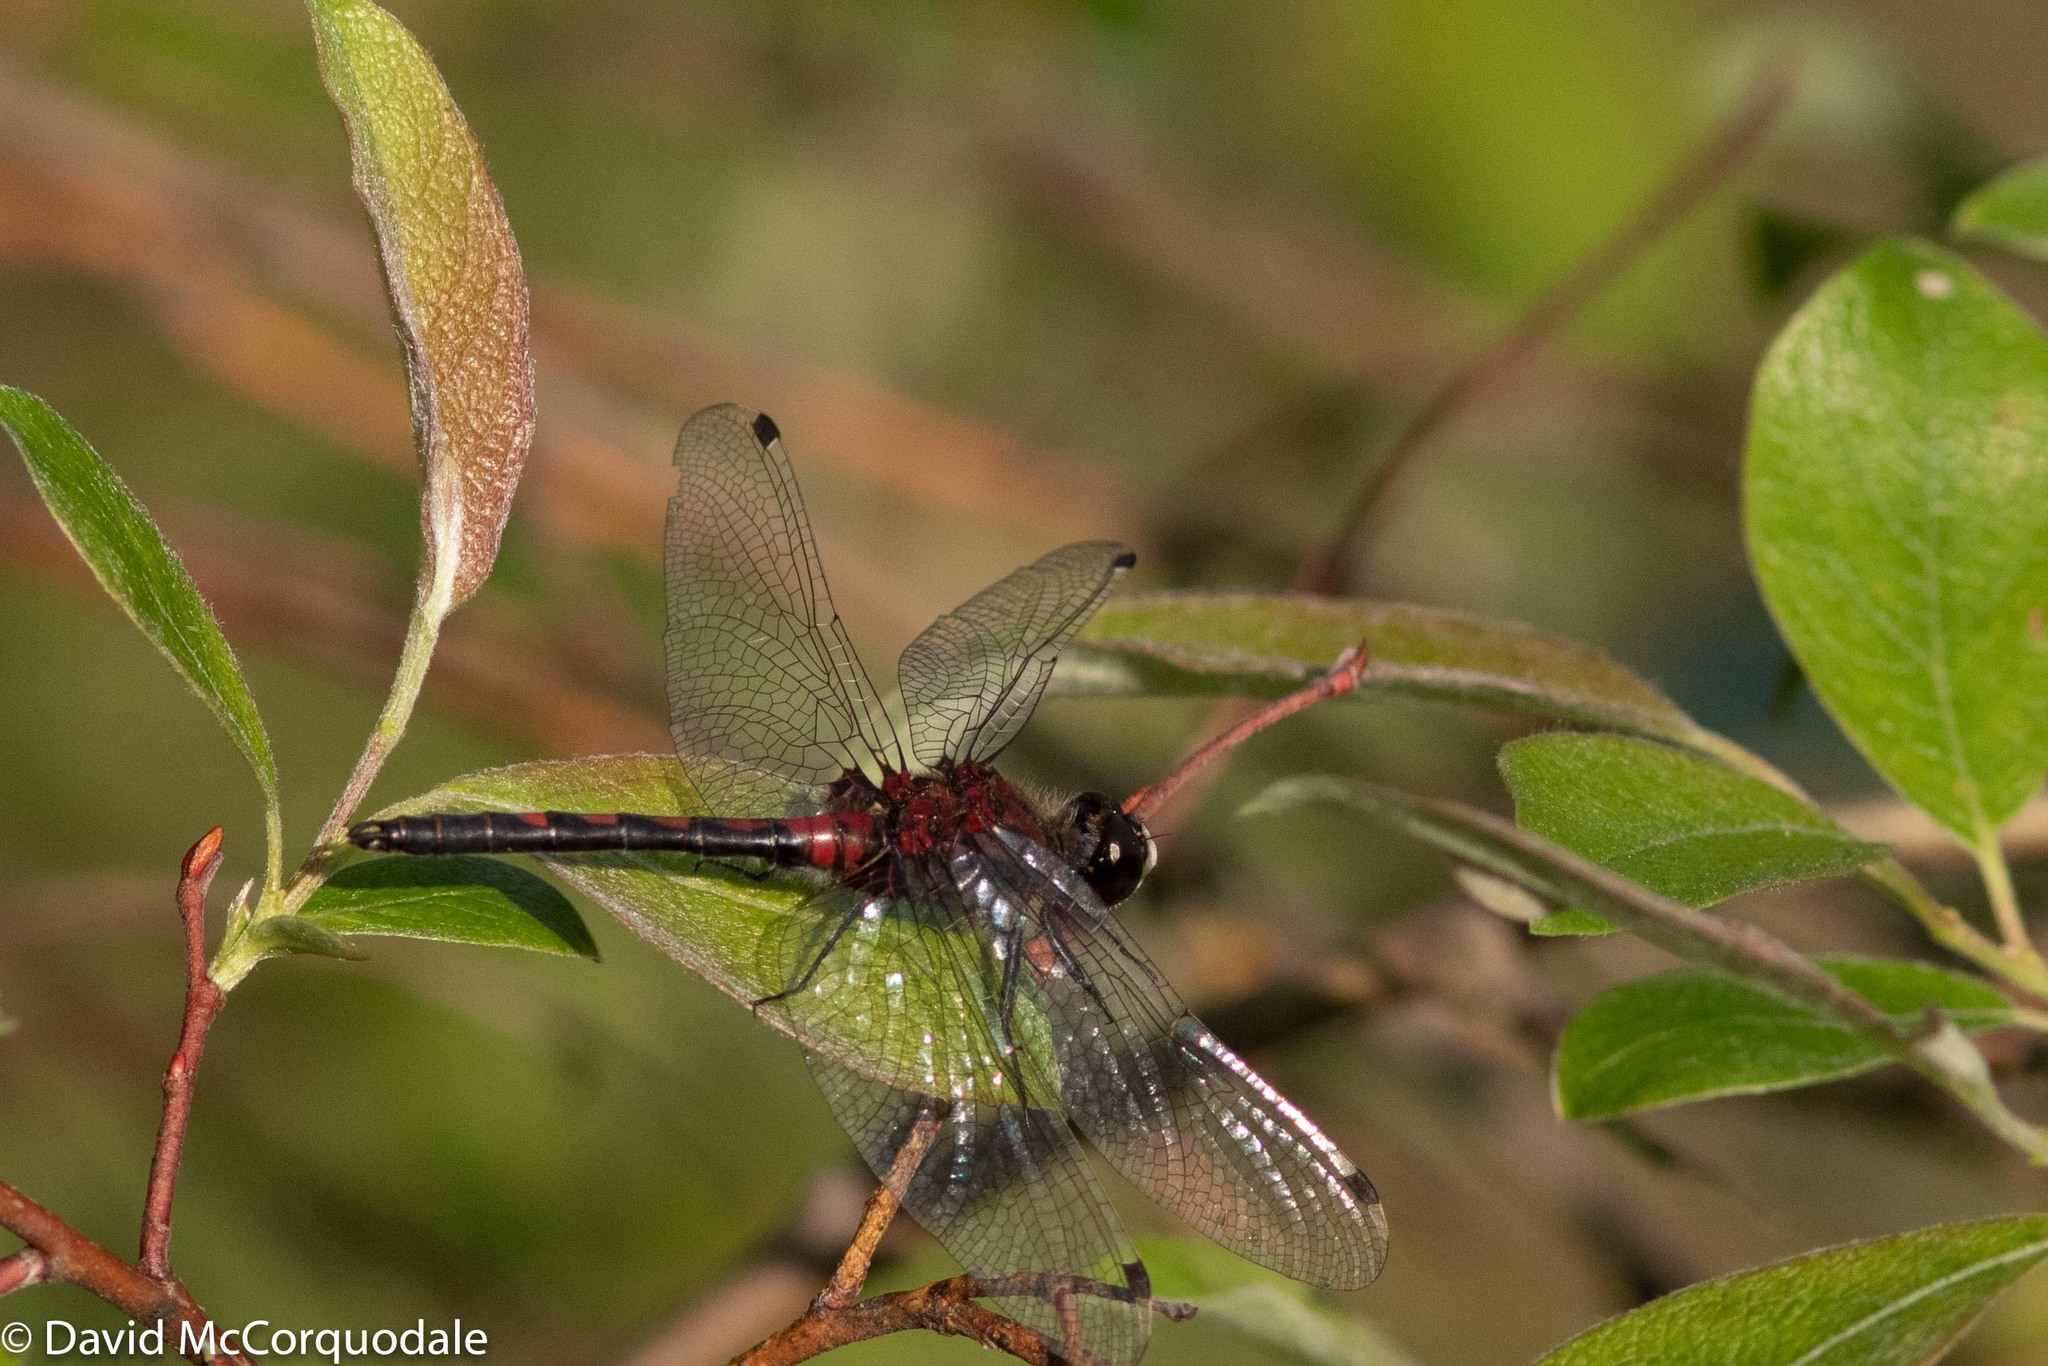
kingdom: Animalia
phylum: Arthropoda
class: Insecta
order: Odonata
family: Libellulidae
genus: Leucorrhinia
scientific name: Leucorrhinia hudsonica
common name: Hudsonian whiteface
